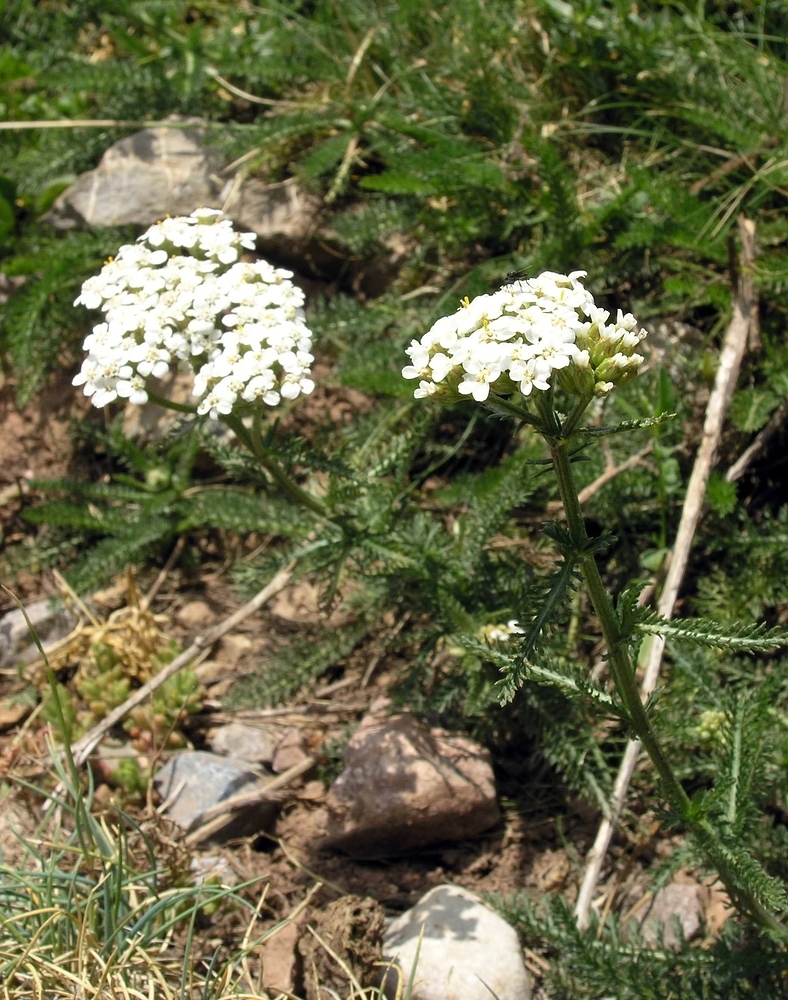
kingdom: Plantae
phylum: Tracheophyta
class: Magnoliopsida
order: Asterales
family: Asteraceae
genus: Achillea
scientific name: Achillea millefolium
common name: Yarrow
